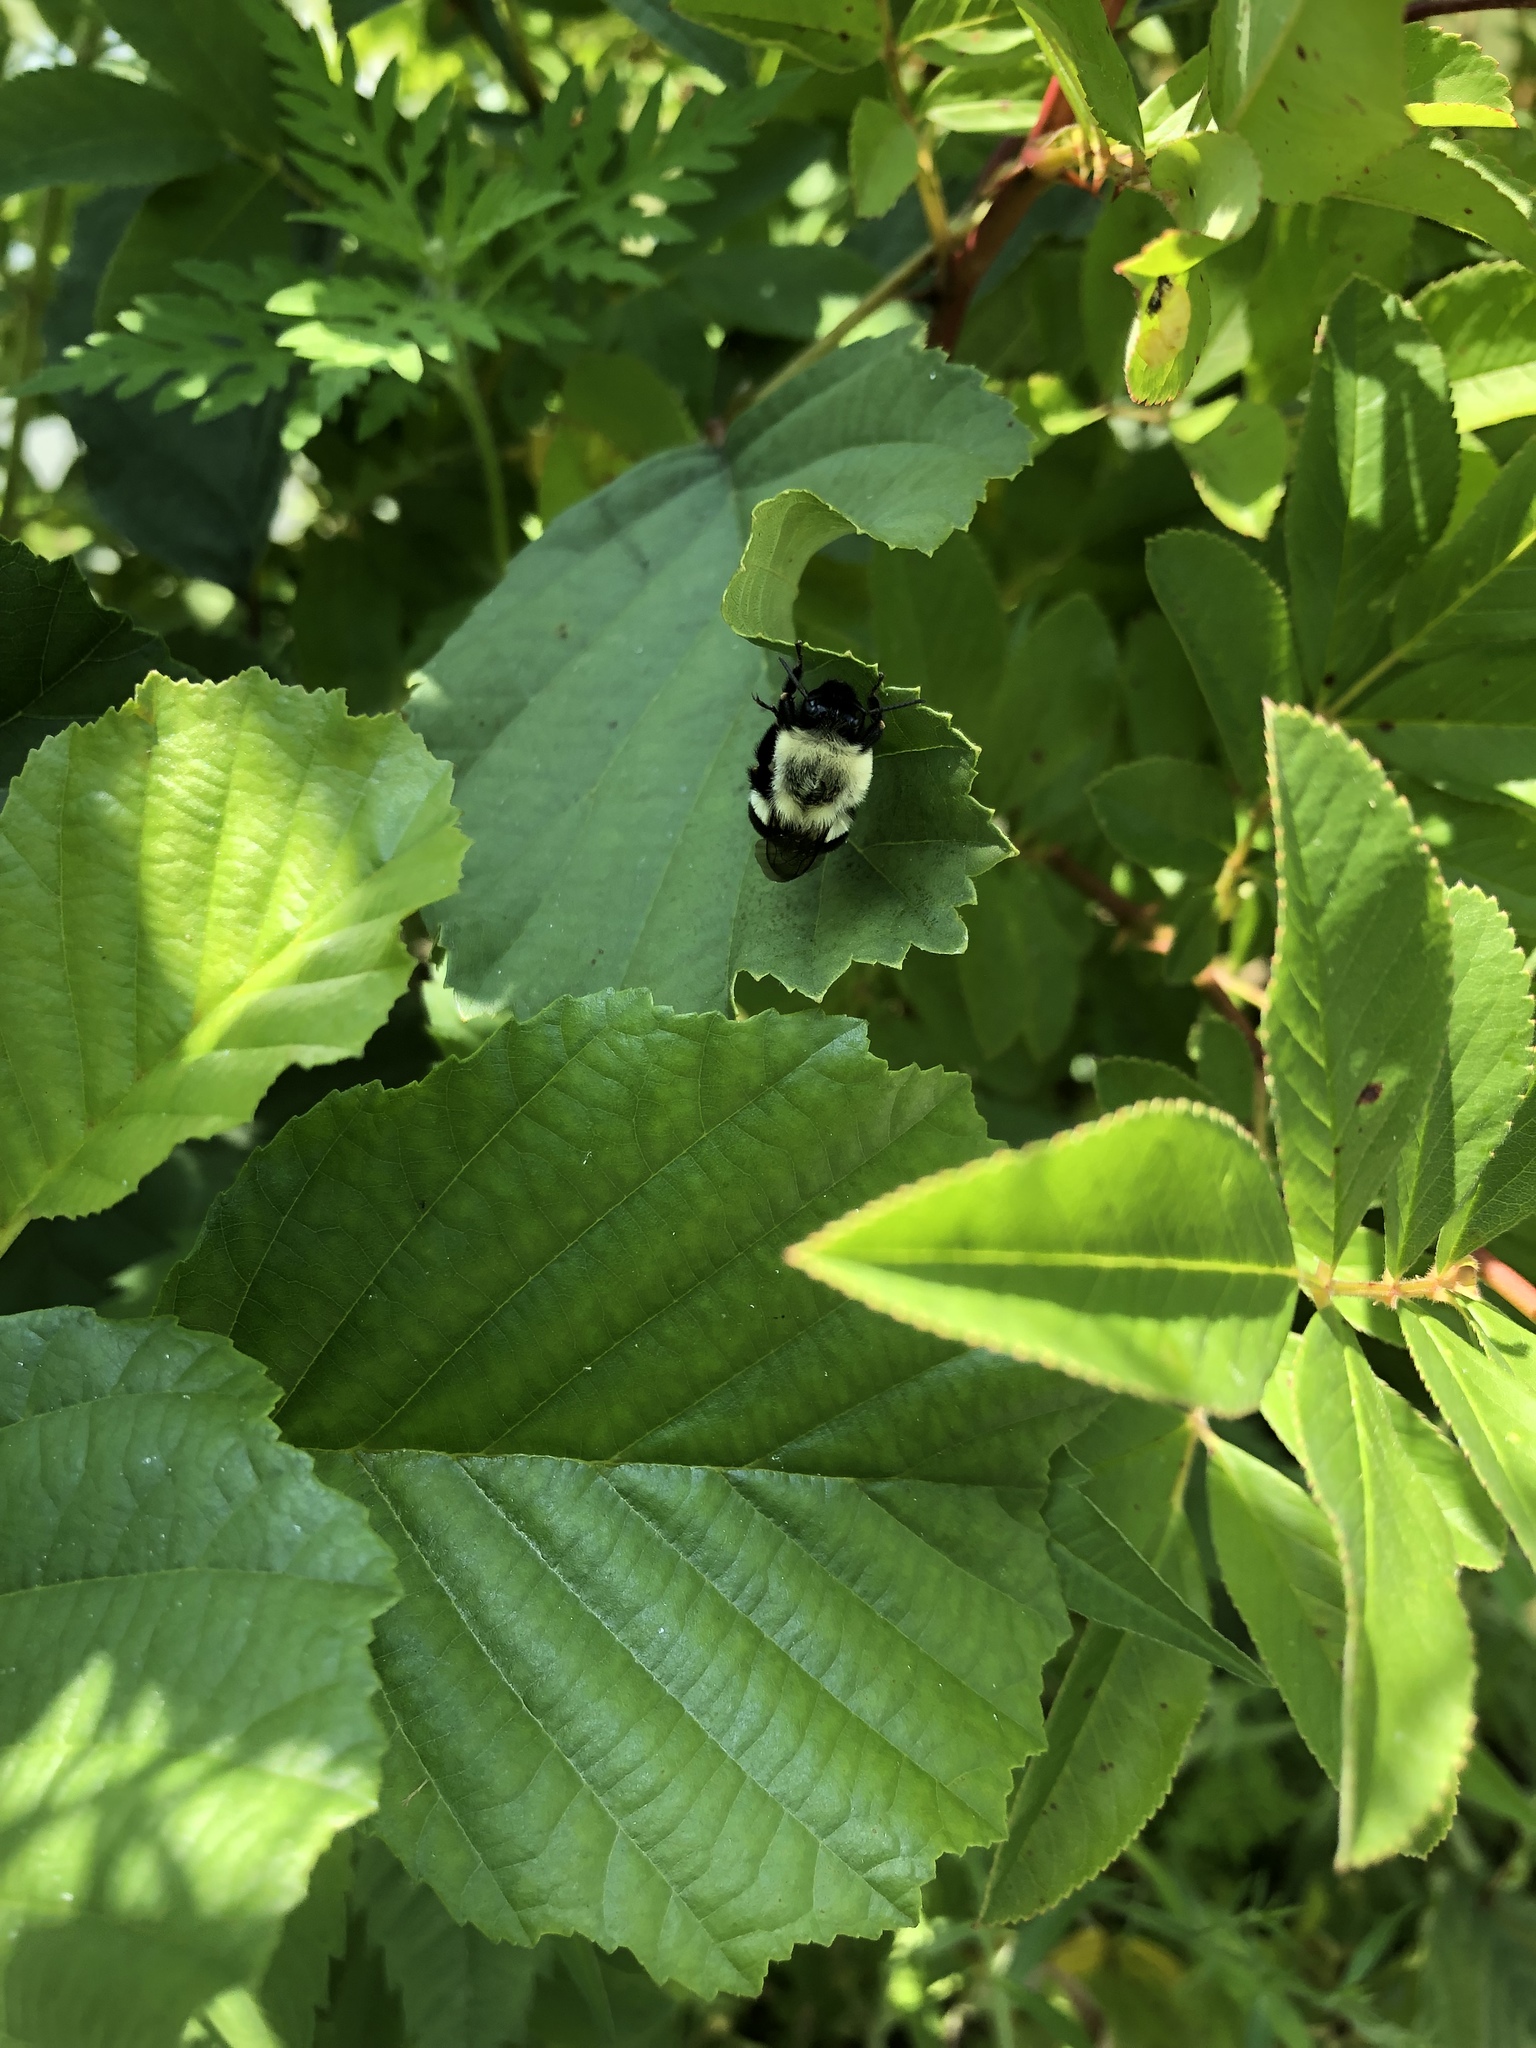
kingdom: Animalia
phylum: Arthropoda
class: Insecta
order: Hymenoptera
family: Apidae
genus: Bombus
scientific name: Bombus impatiens
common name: Common eastern bumble bee
